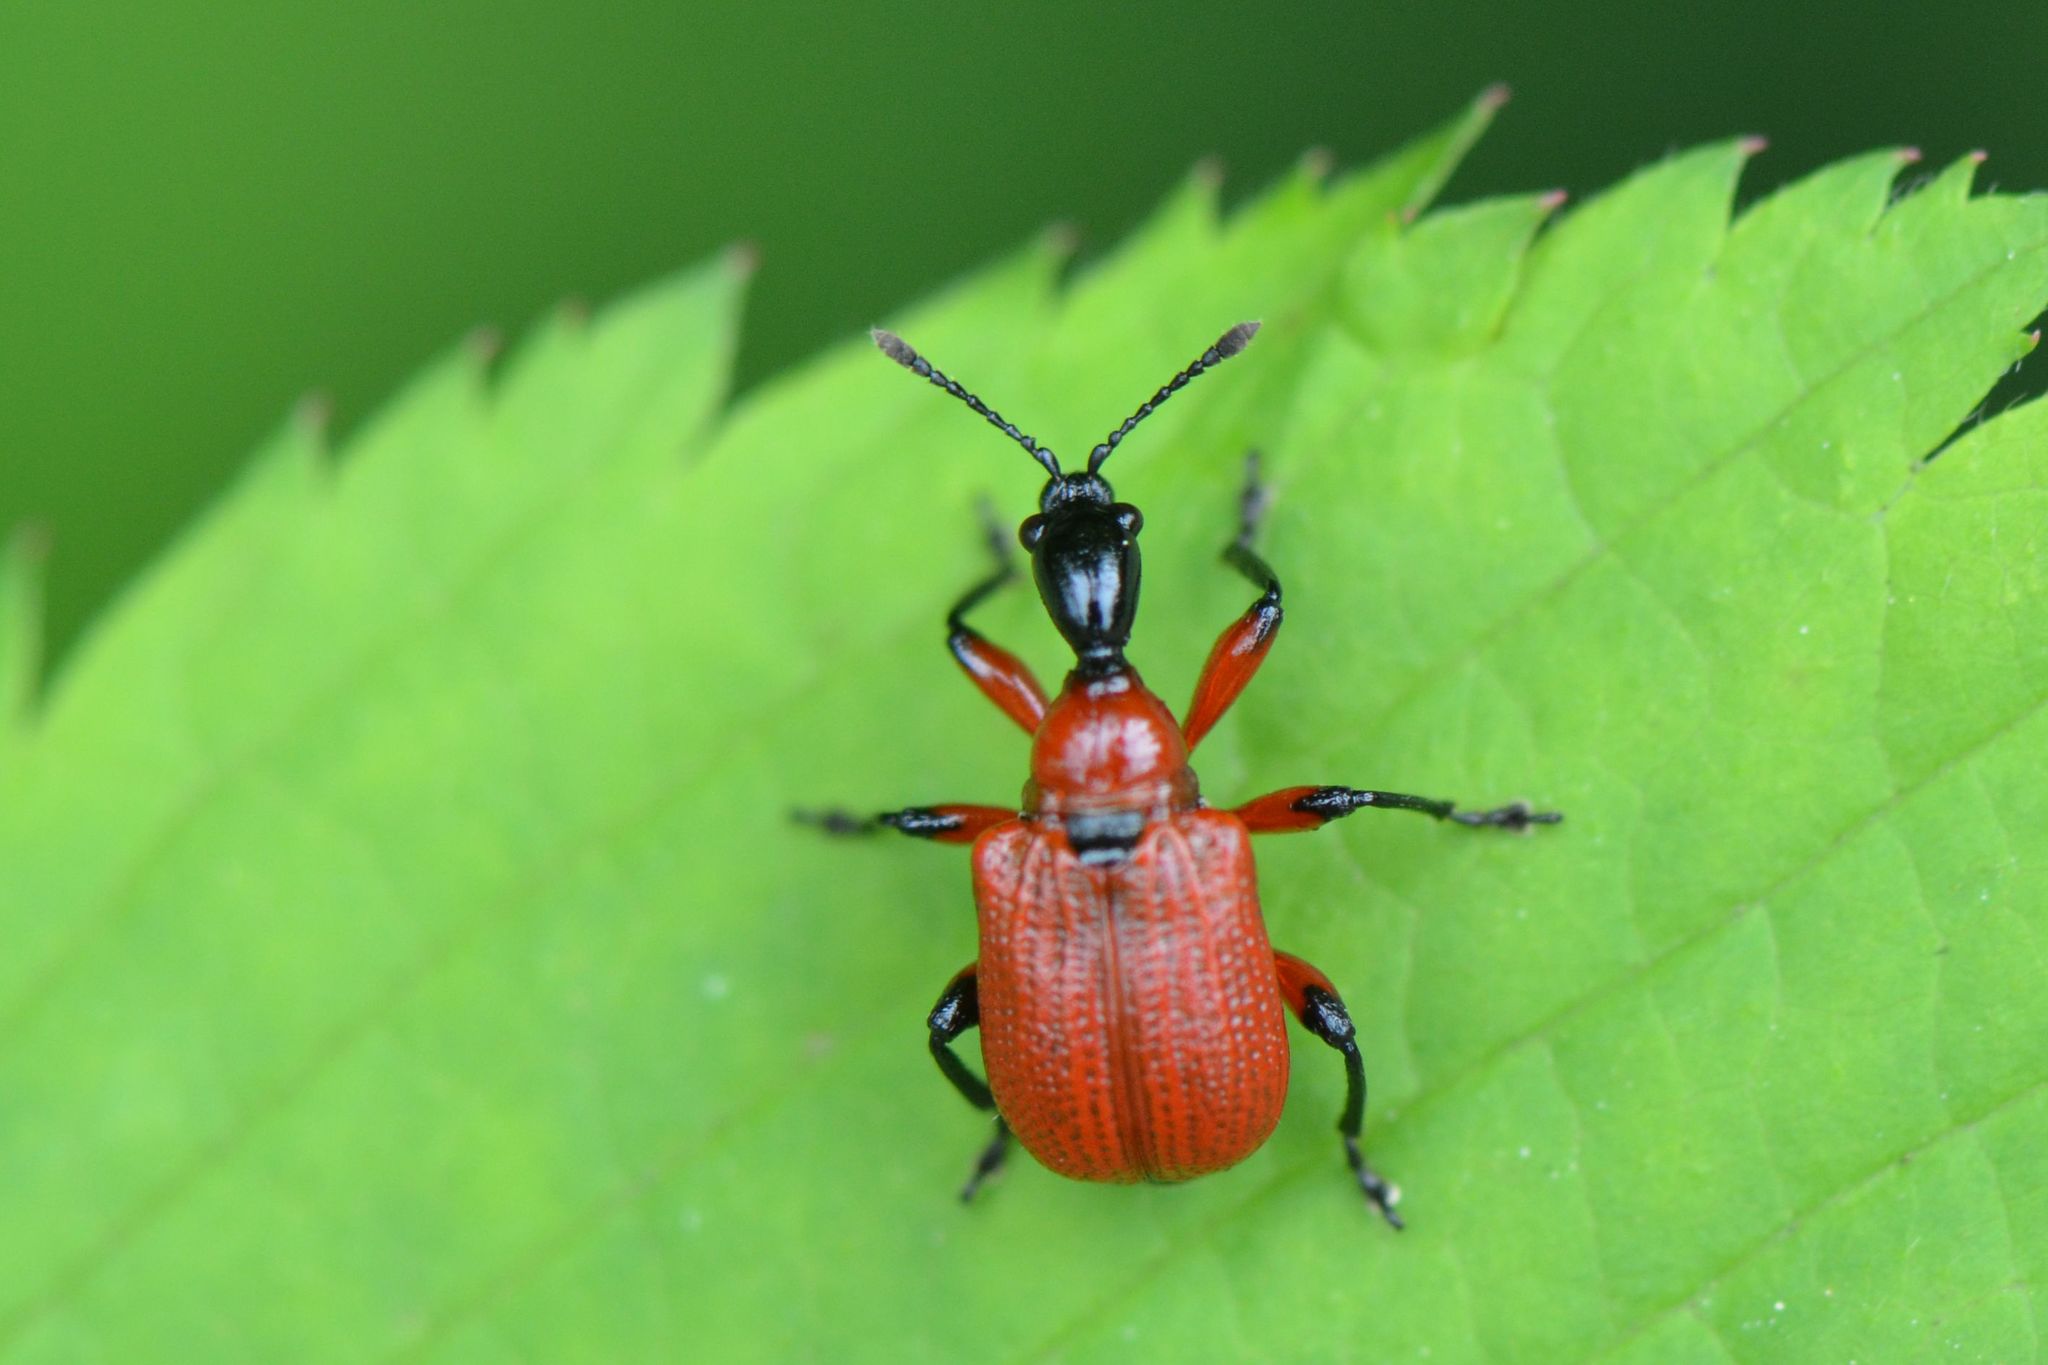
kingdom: Animalia
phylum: Arthropoda
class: Insecta
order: Coleoptera
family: Attelabidae
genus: Apoderus
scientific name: Apoderus coryli
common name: Hazel leaf roller
